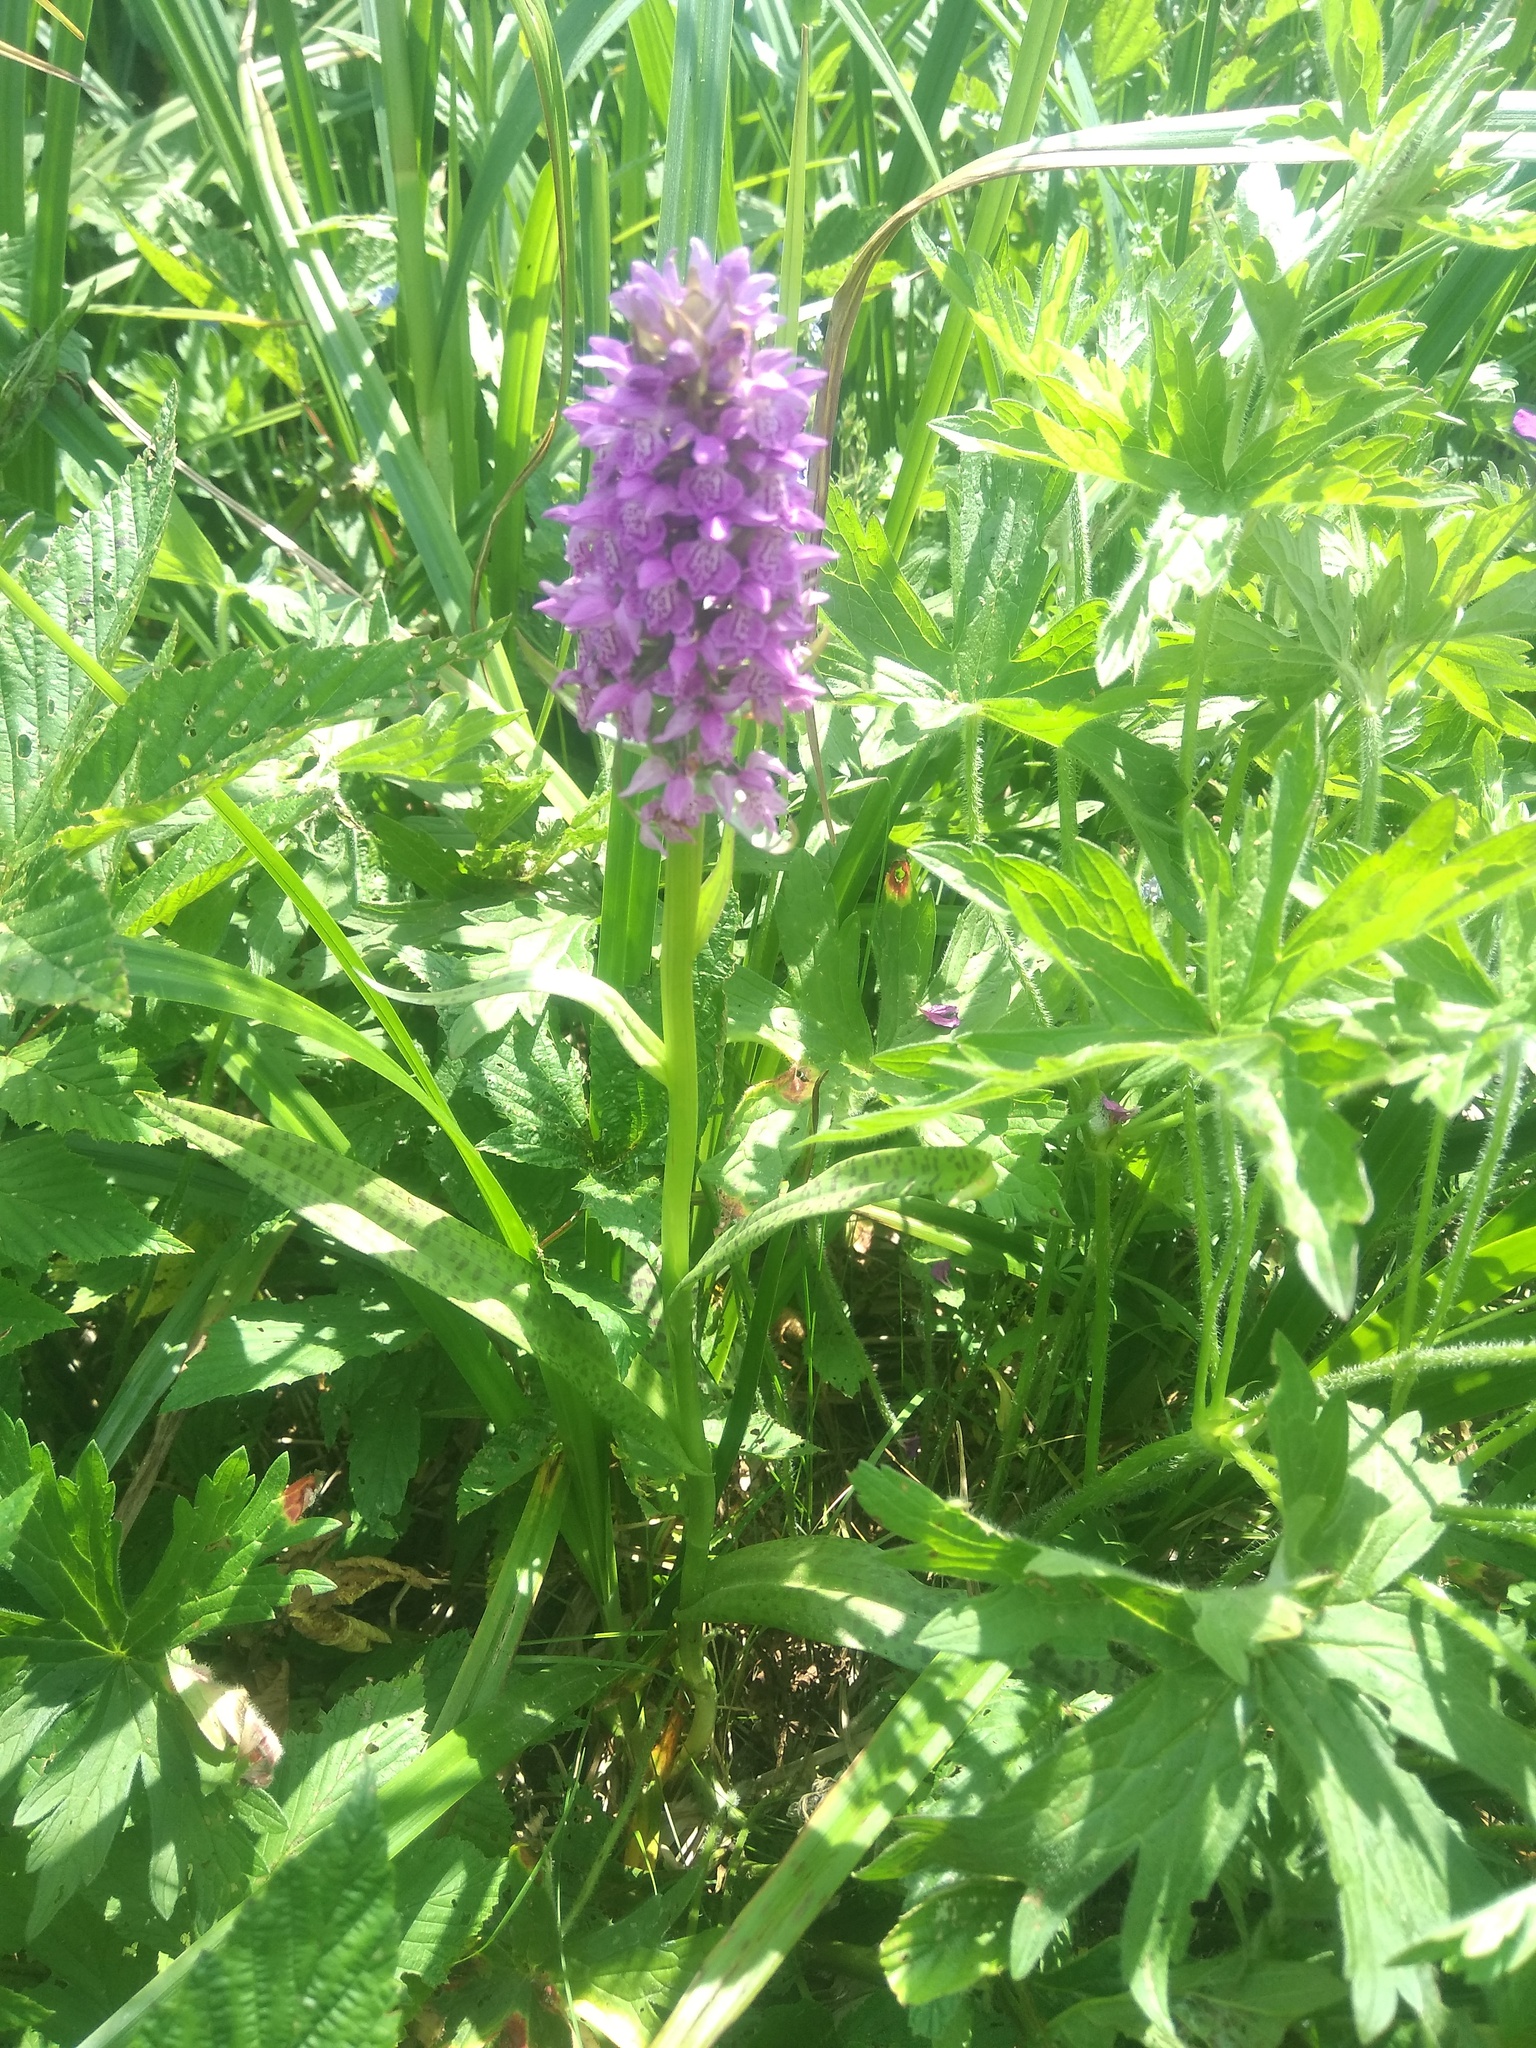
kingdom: Plantae
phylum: Tracheophyta
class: Liliopsida
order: Asparagales
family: Orchidaceae
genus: Dactylorhiza
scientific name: Dactylorhiza majalis
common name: Marsh orchid
